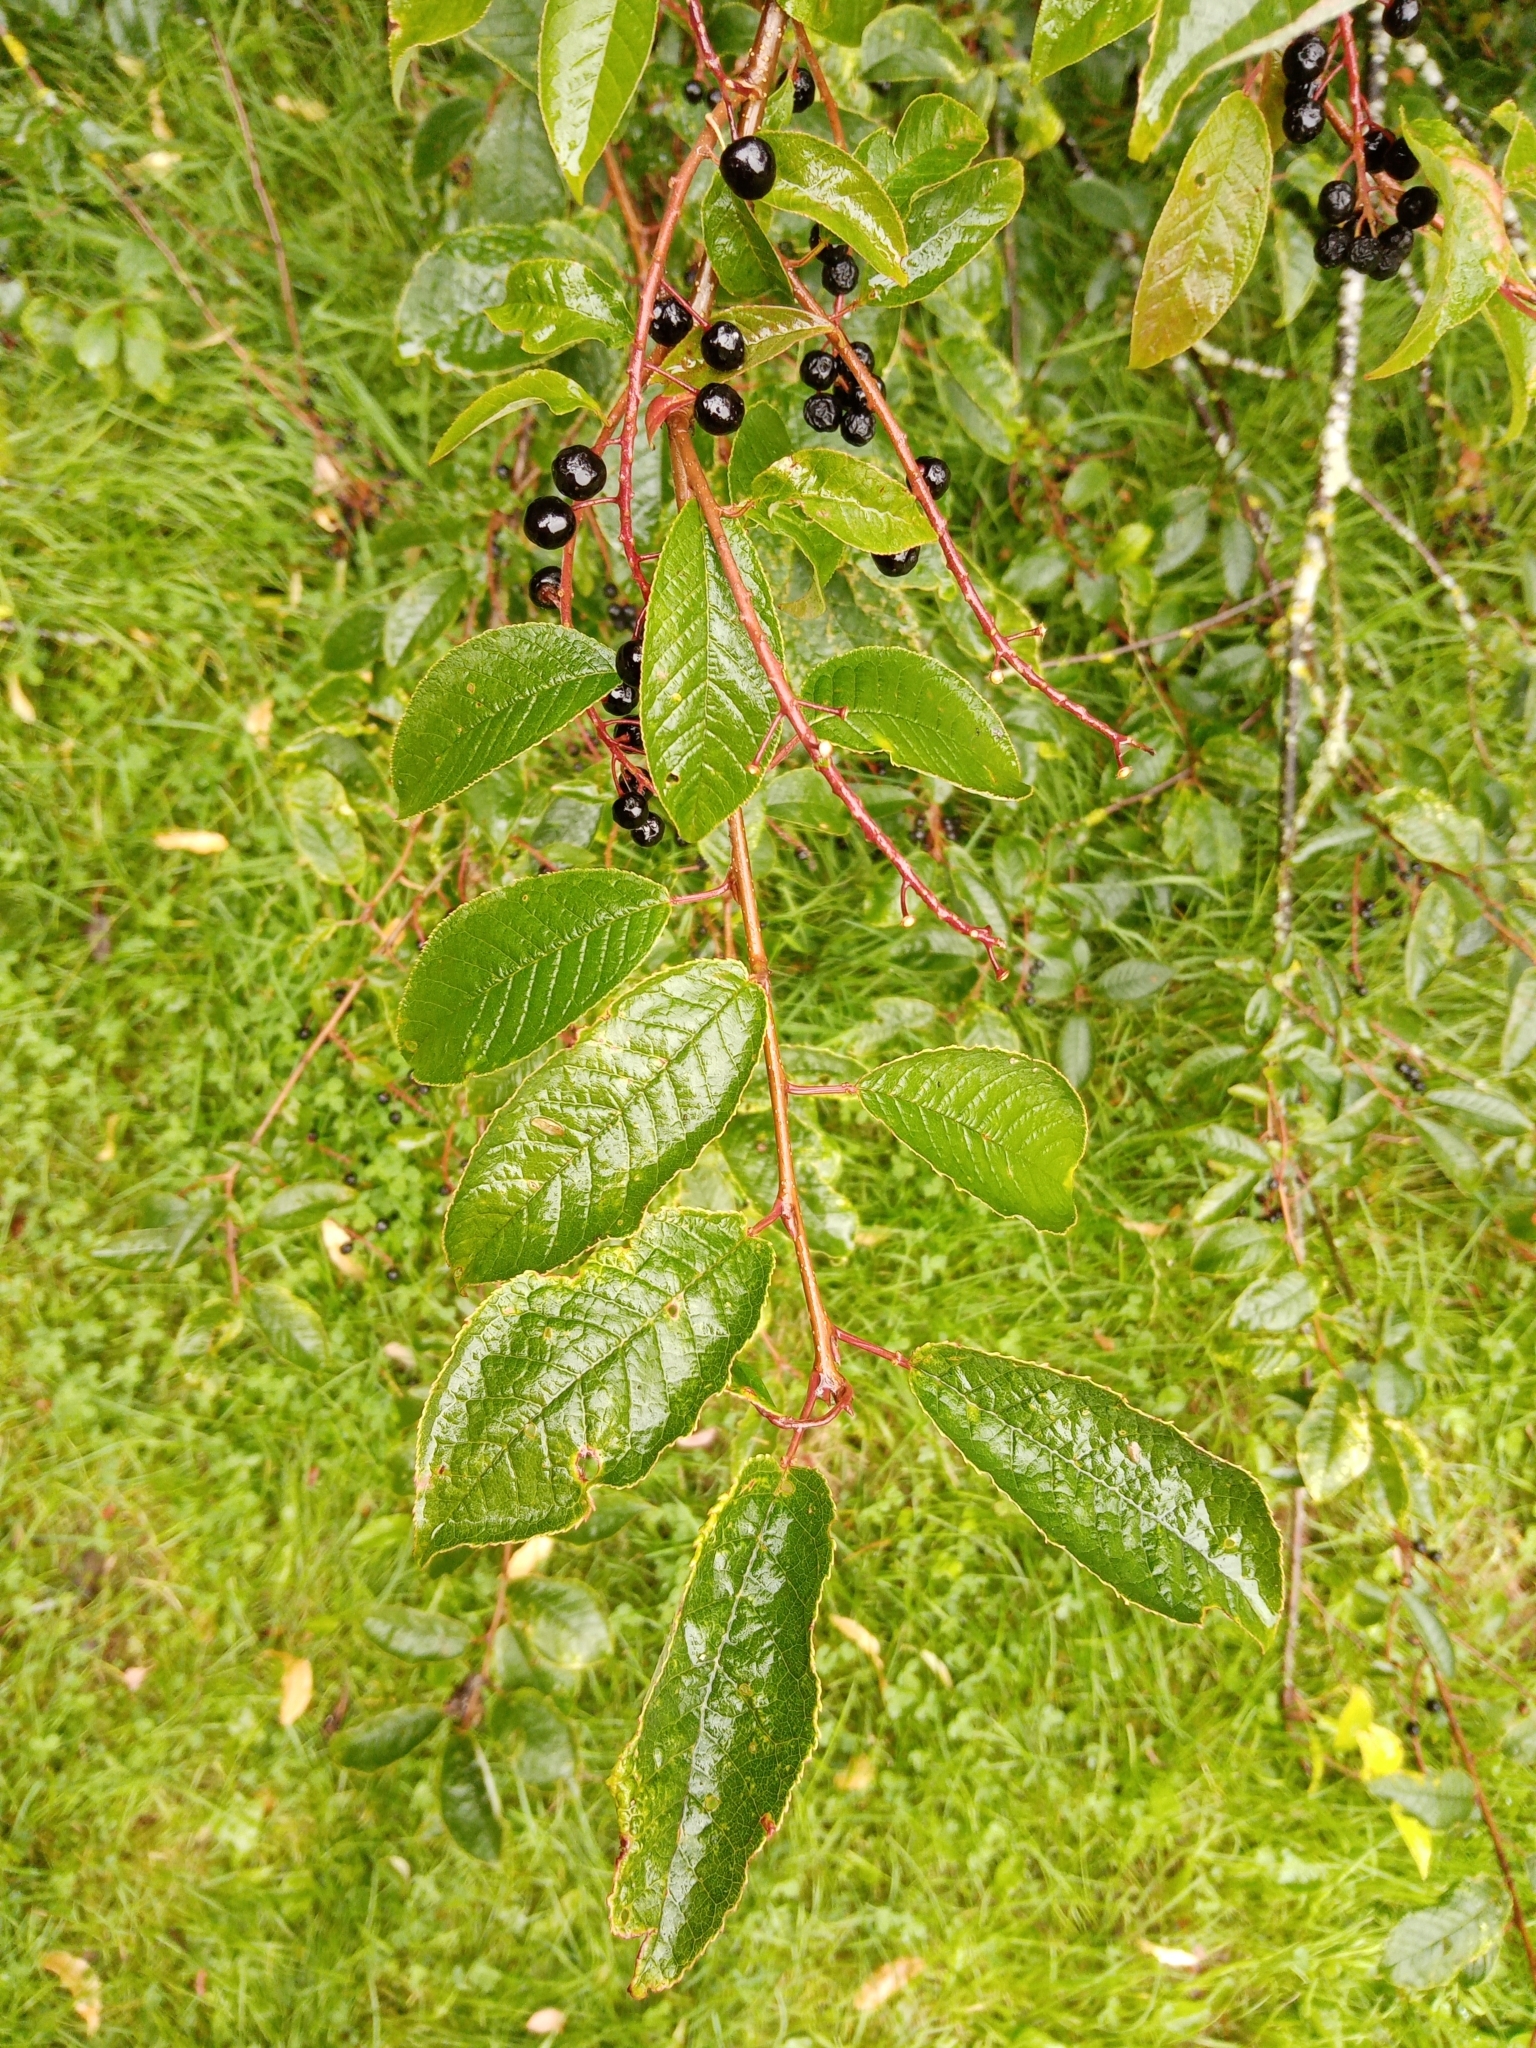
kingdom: Plantae
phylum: Tracheophyta
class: Magnoliopsida
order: Rosales
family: Rosaceae
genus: Prunus
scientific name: Prunus padus
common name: Bird cherry
